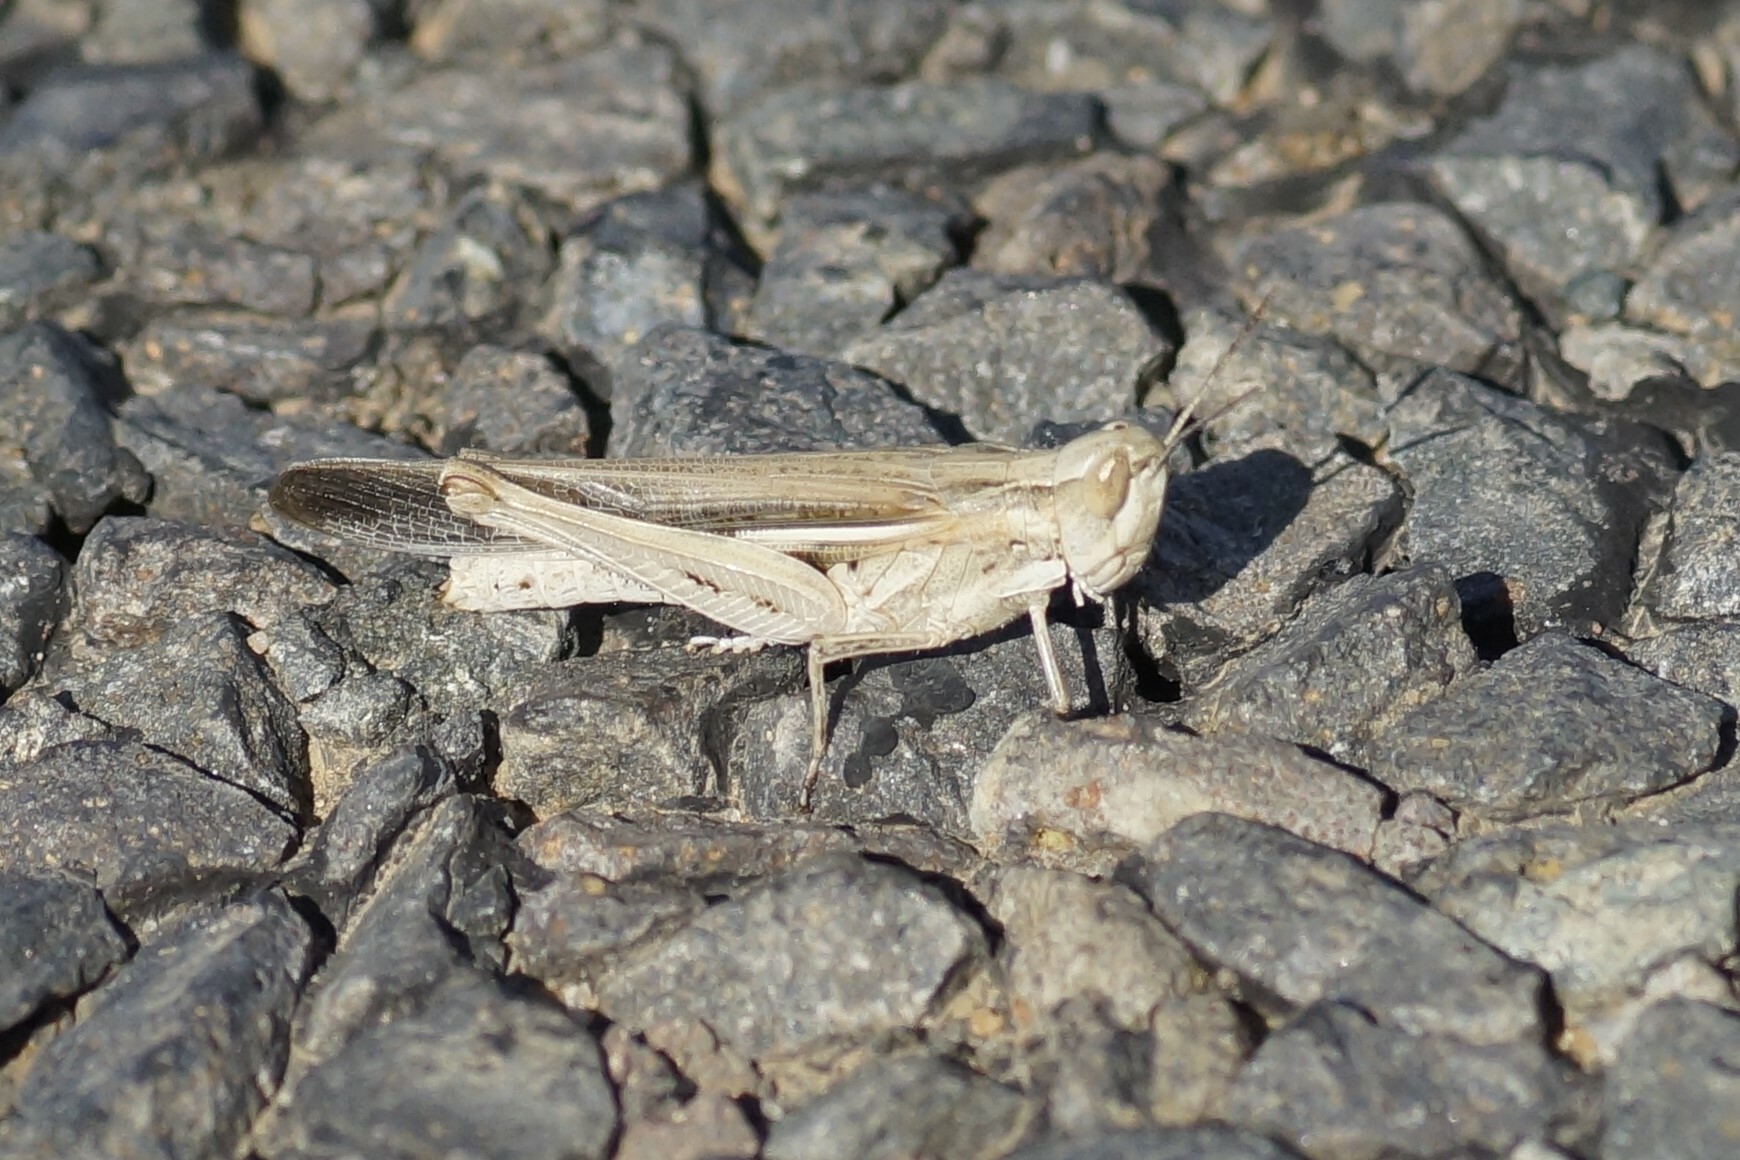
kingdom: Animalia
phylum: Arthropoda
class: Insecta
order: Orthoptera
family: Acrididae
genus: Aiolopus
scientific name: Aiolopus thalassinus
